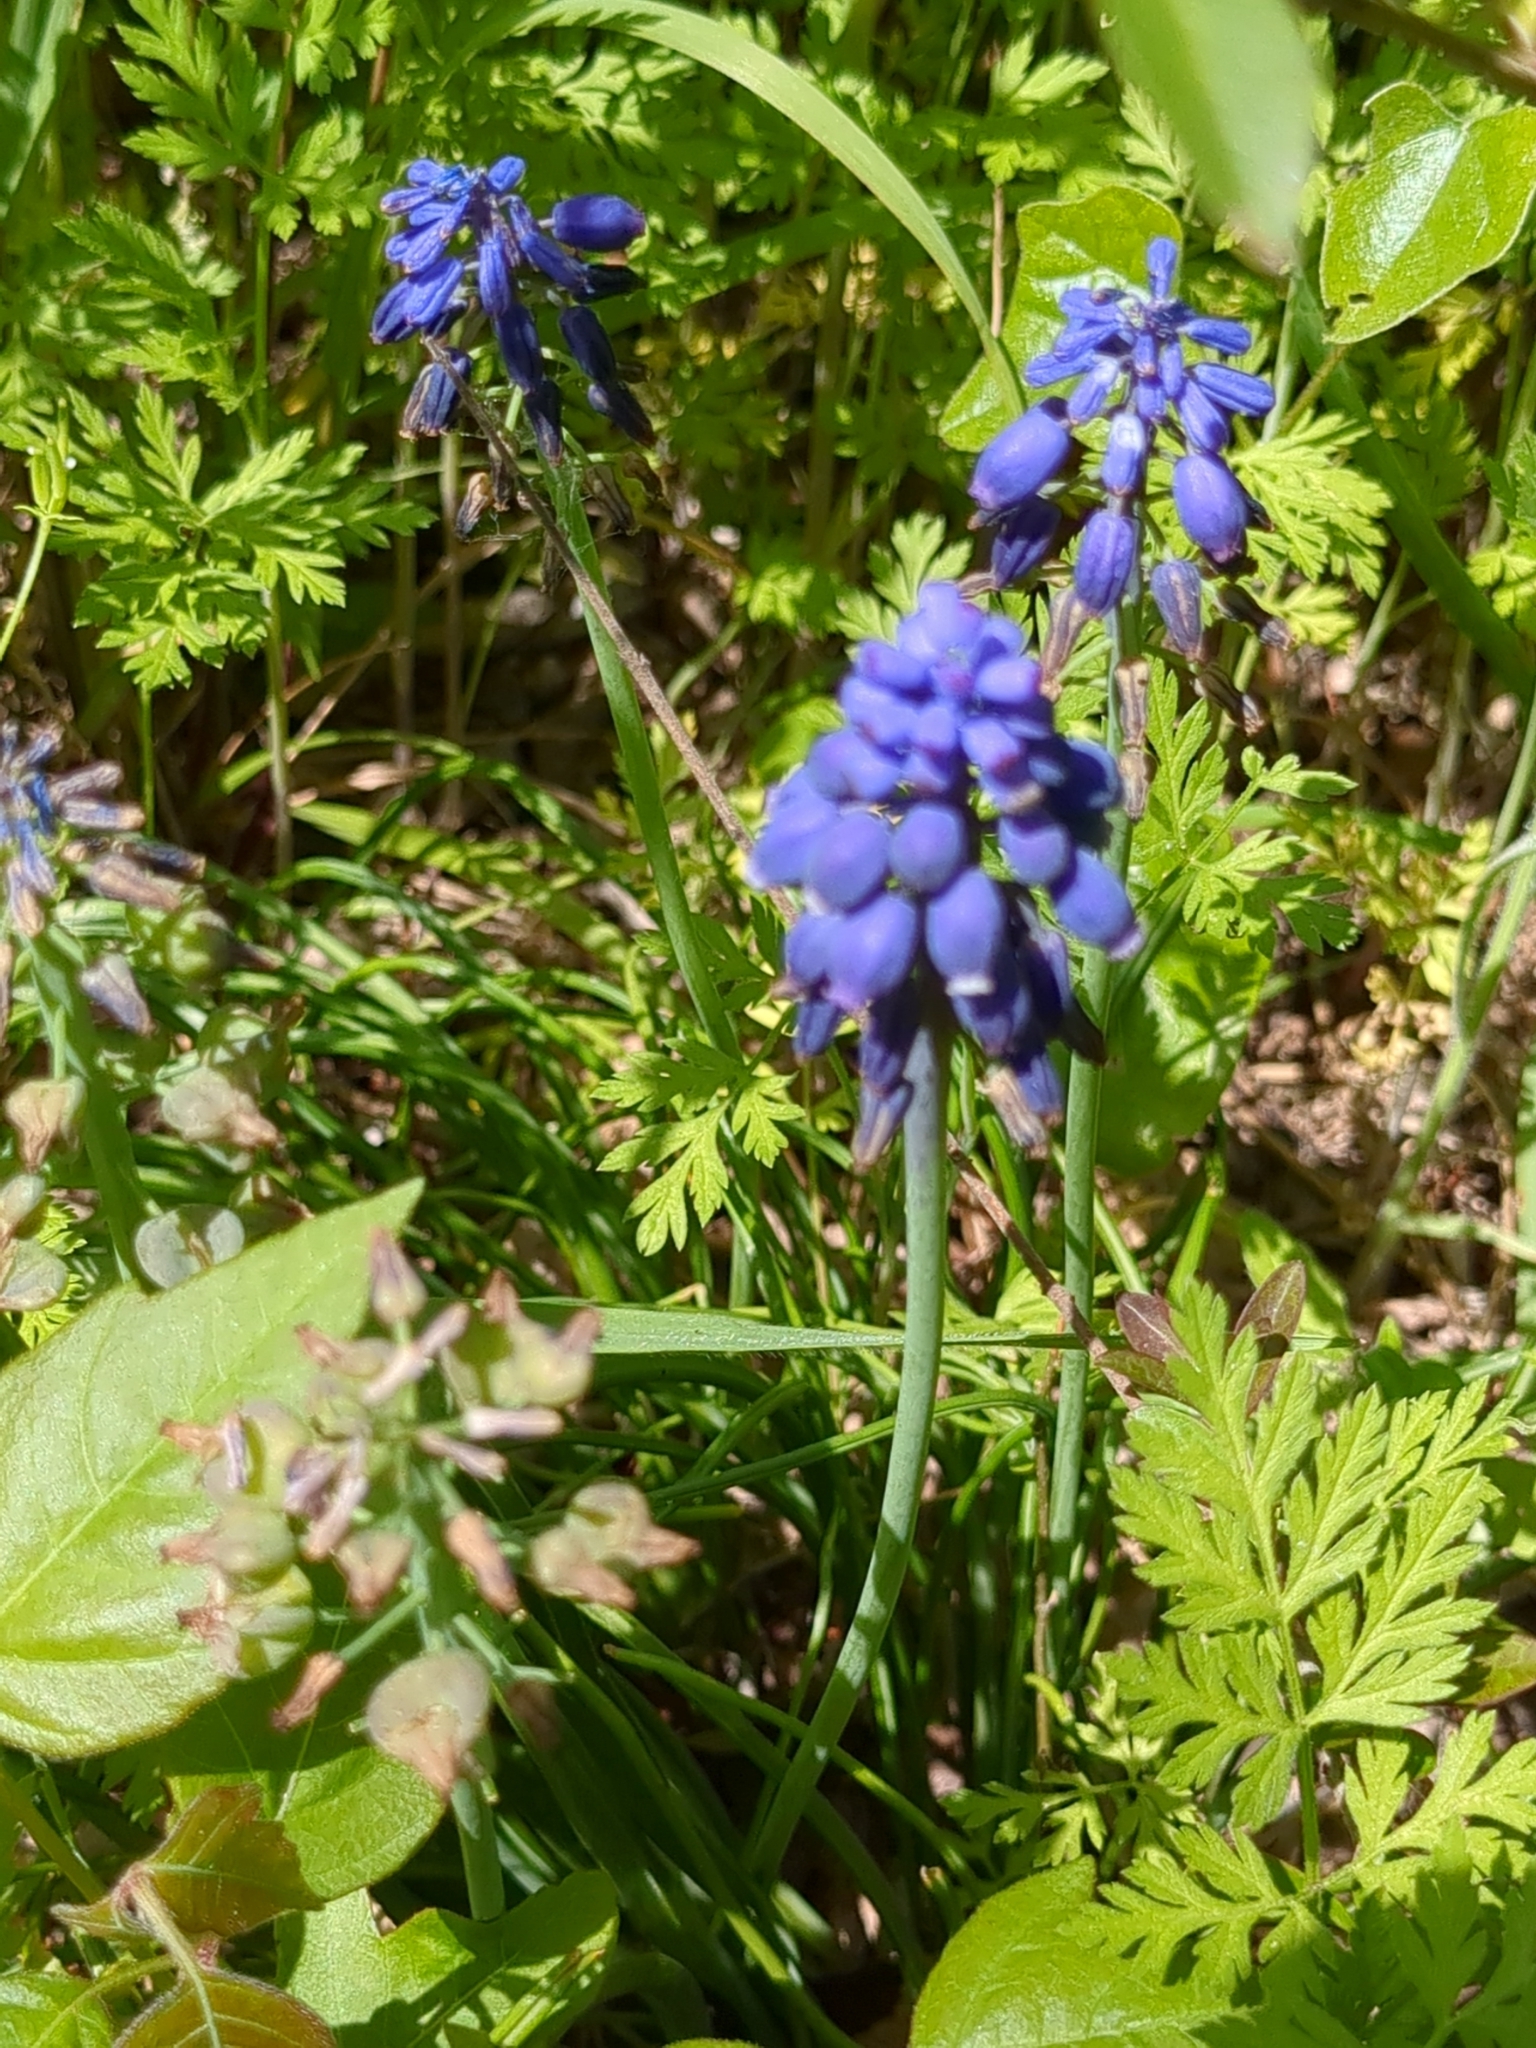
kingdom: Plantae
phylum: Tracheophyta
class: Liliopsida
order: Asparagales
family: Asparagaceae
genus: Muscari
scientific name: Muscari neglectum
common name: Grape-hyacinth
